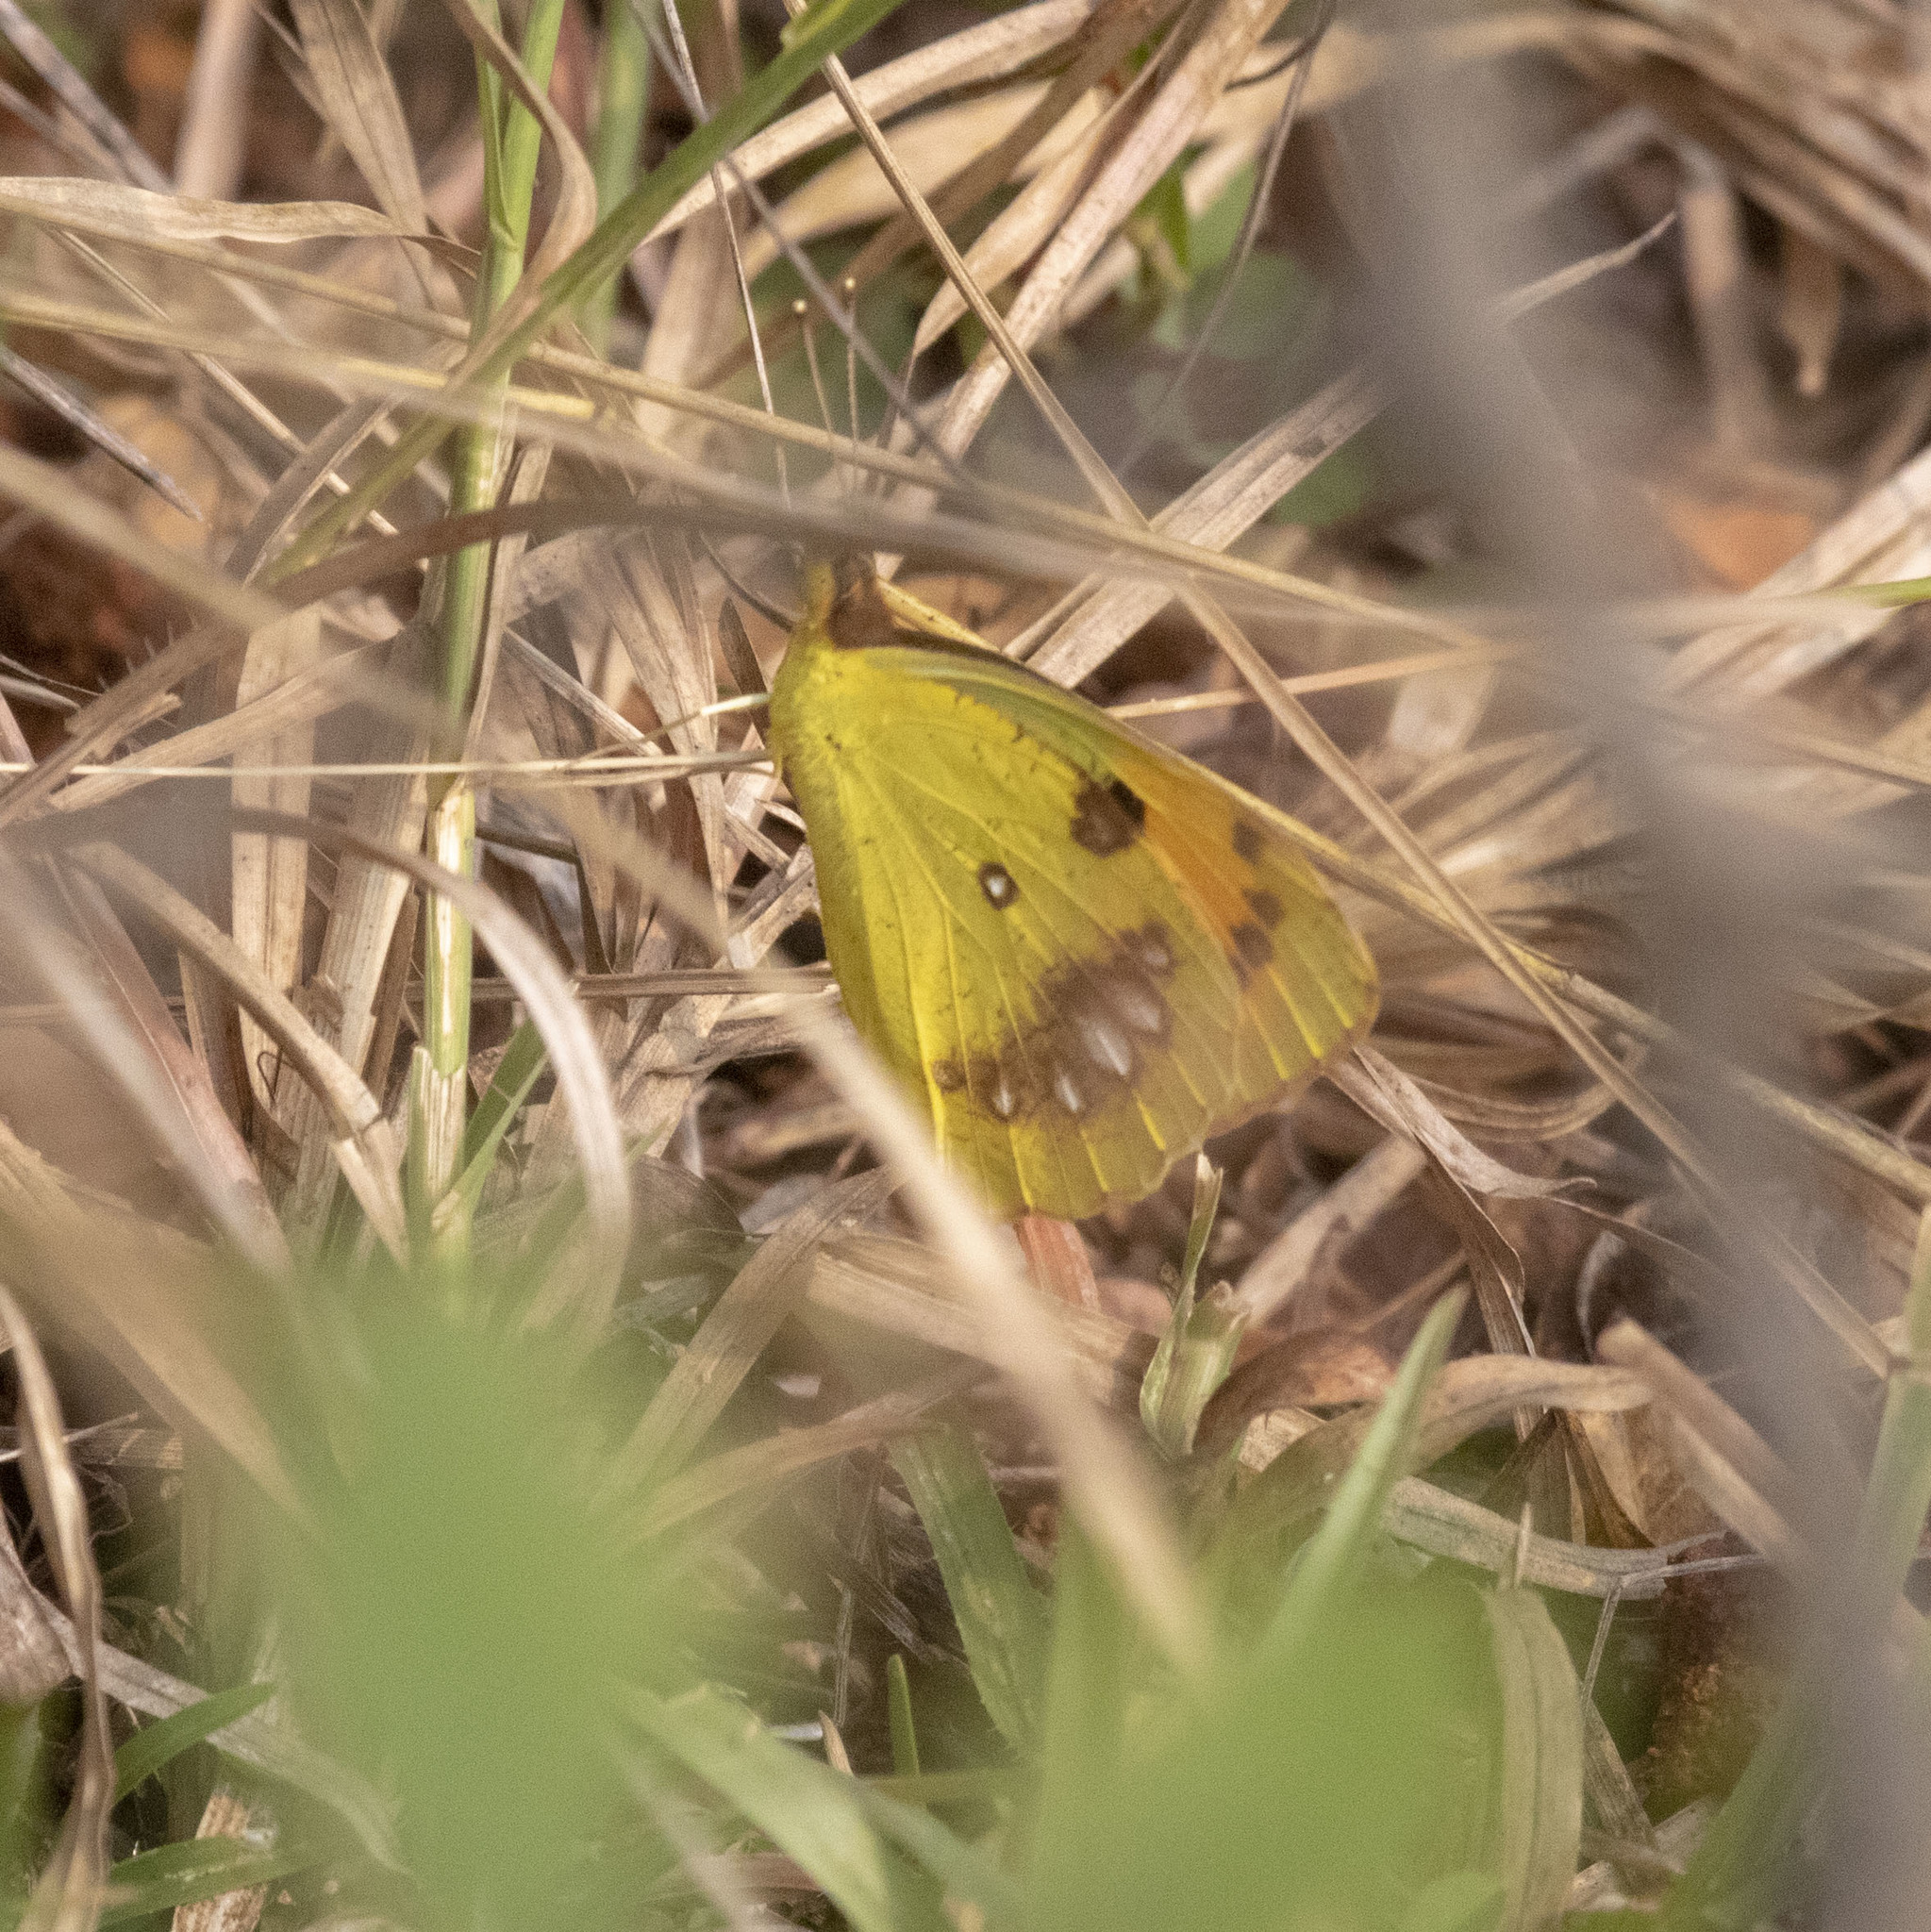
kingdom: Animalia
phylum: Arthropoda
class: Insecta
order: Lepidoptera
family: Pieridae
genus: Ixias
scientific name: Ixias marianne
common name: White orange tip
